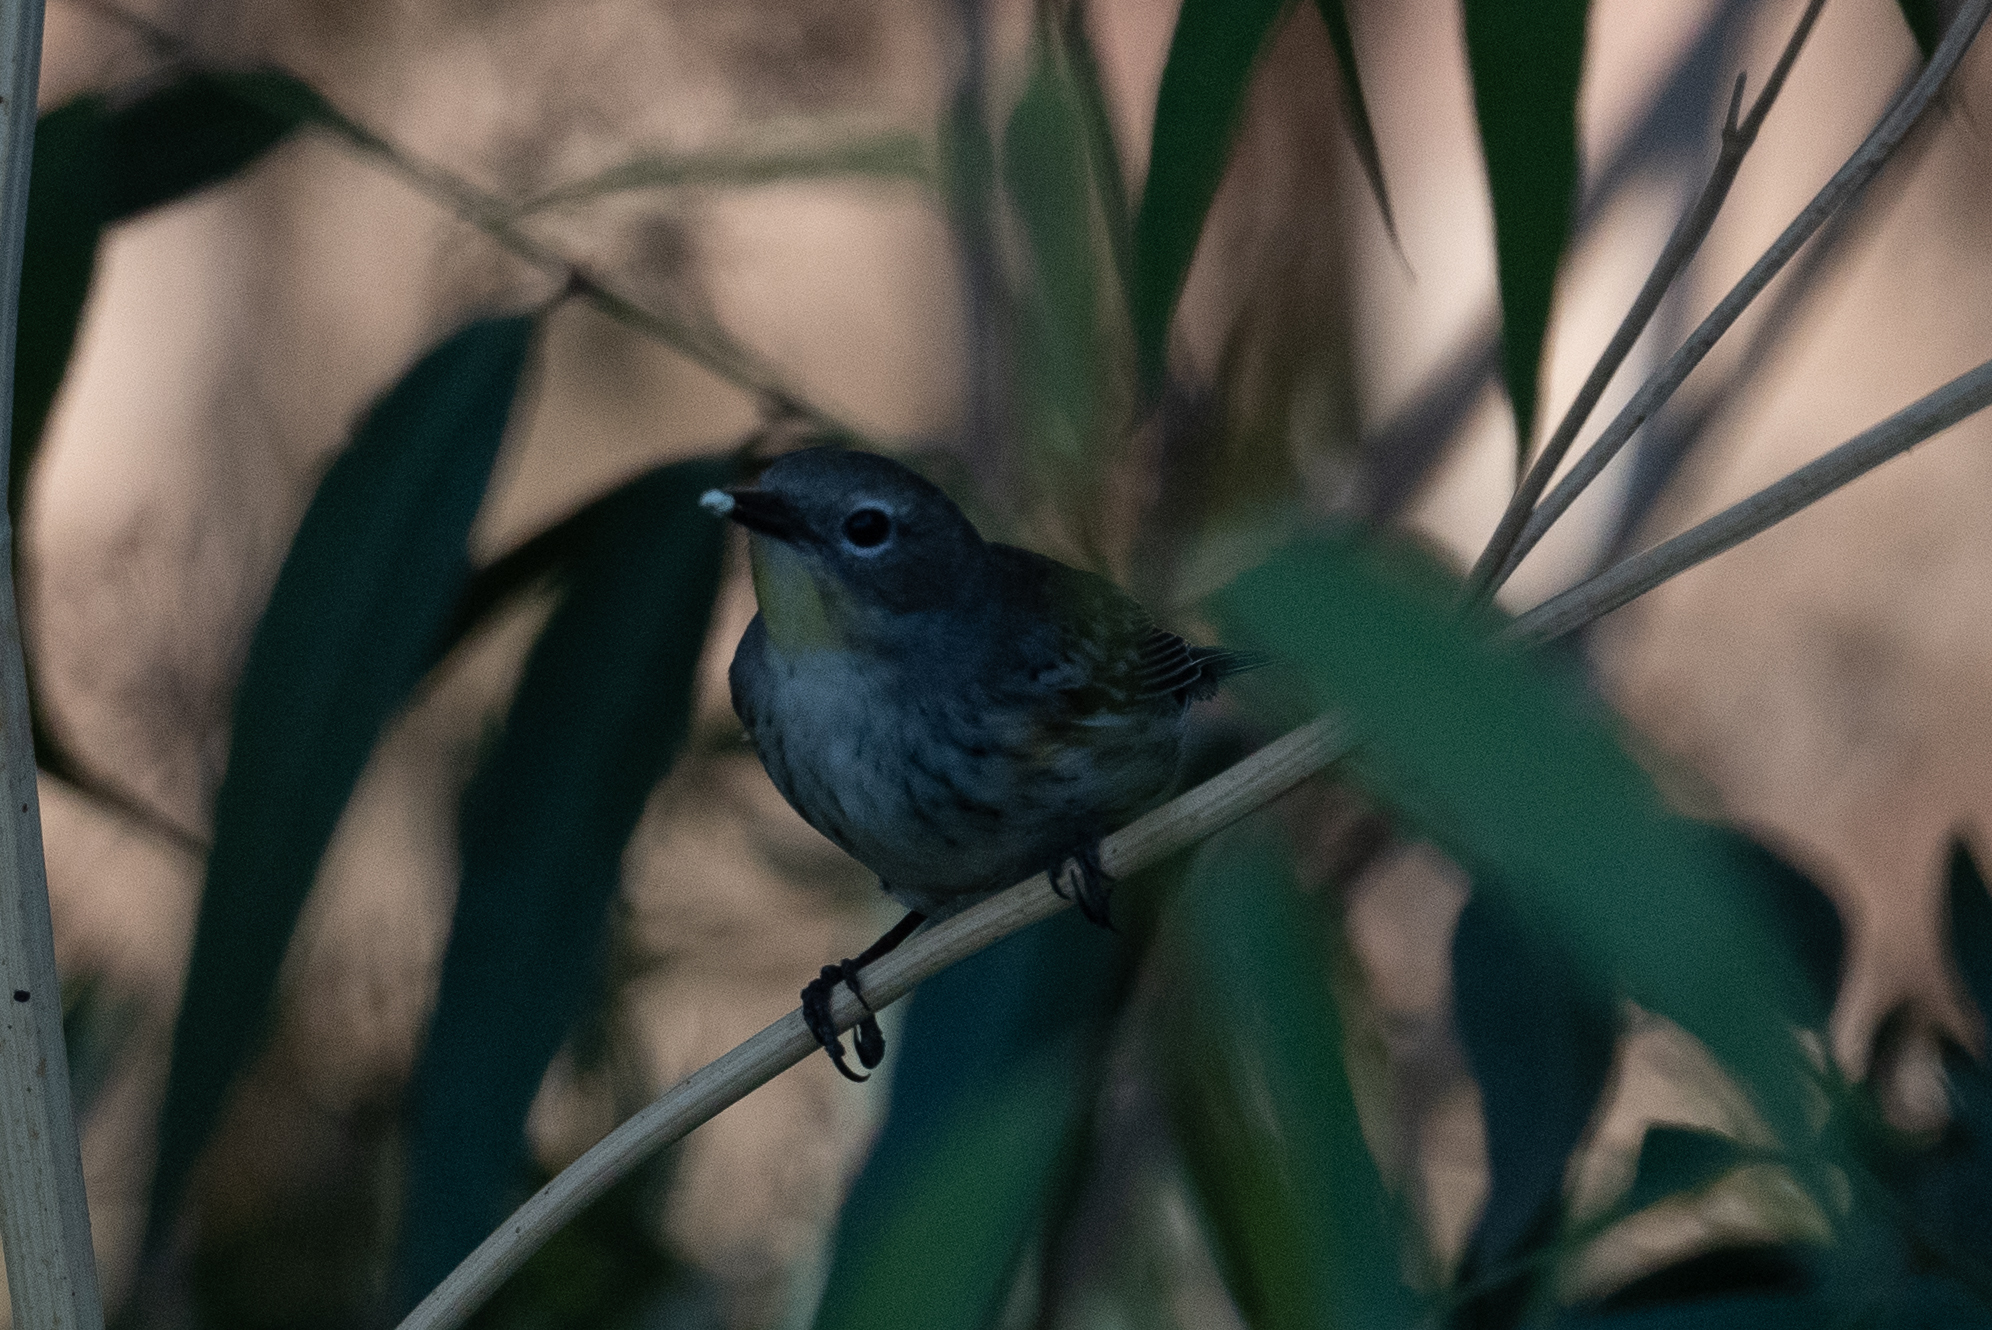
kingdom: Animalia
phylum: Chordata
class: Aves
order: Passeriformes
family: Parulidae
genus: Setophaga
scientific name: Setophaga coronata
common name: Myrtle warbler
